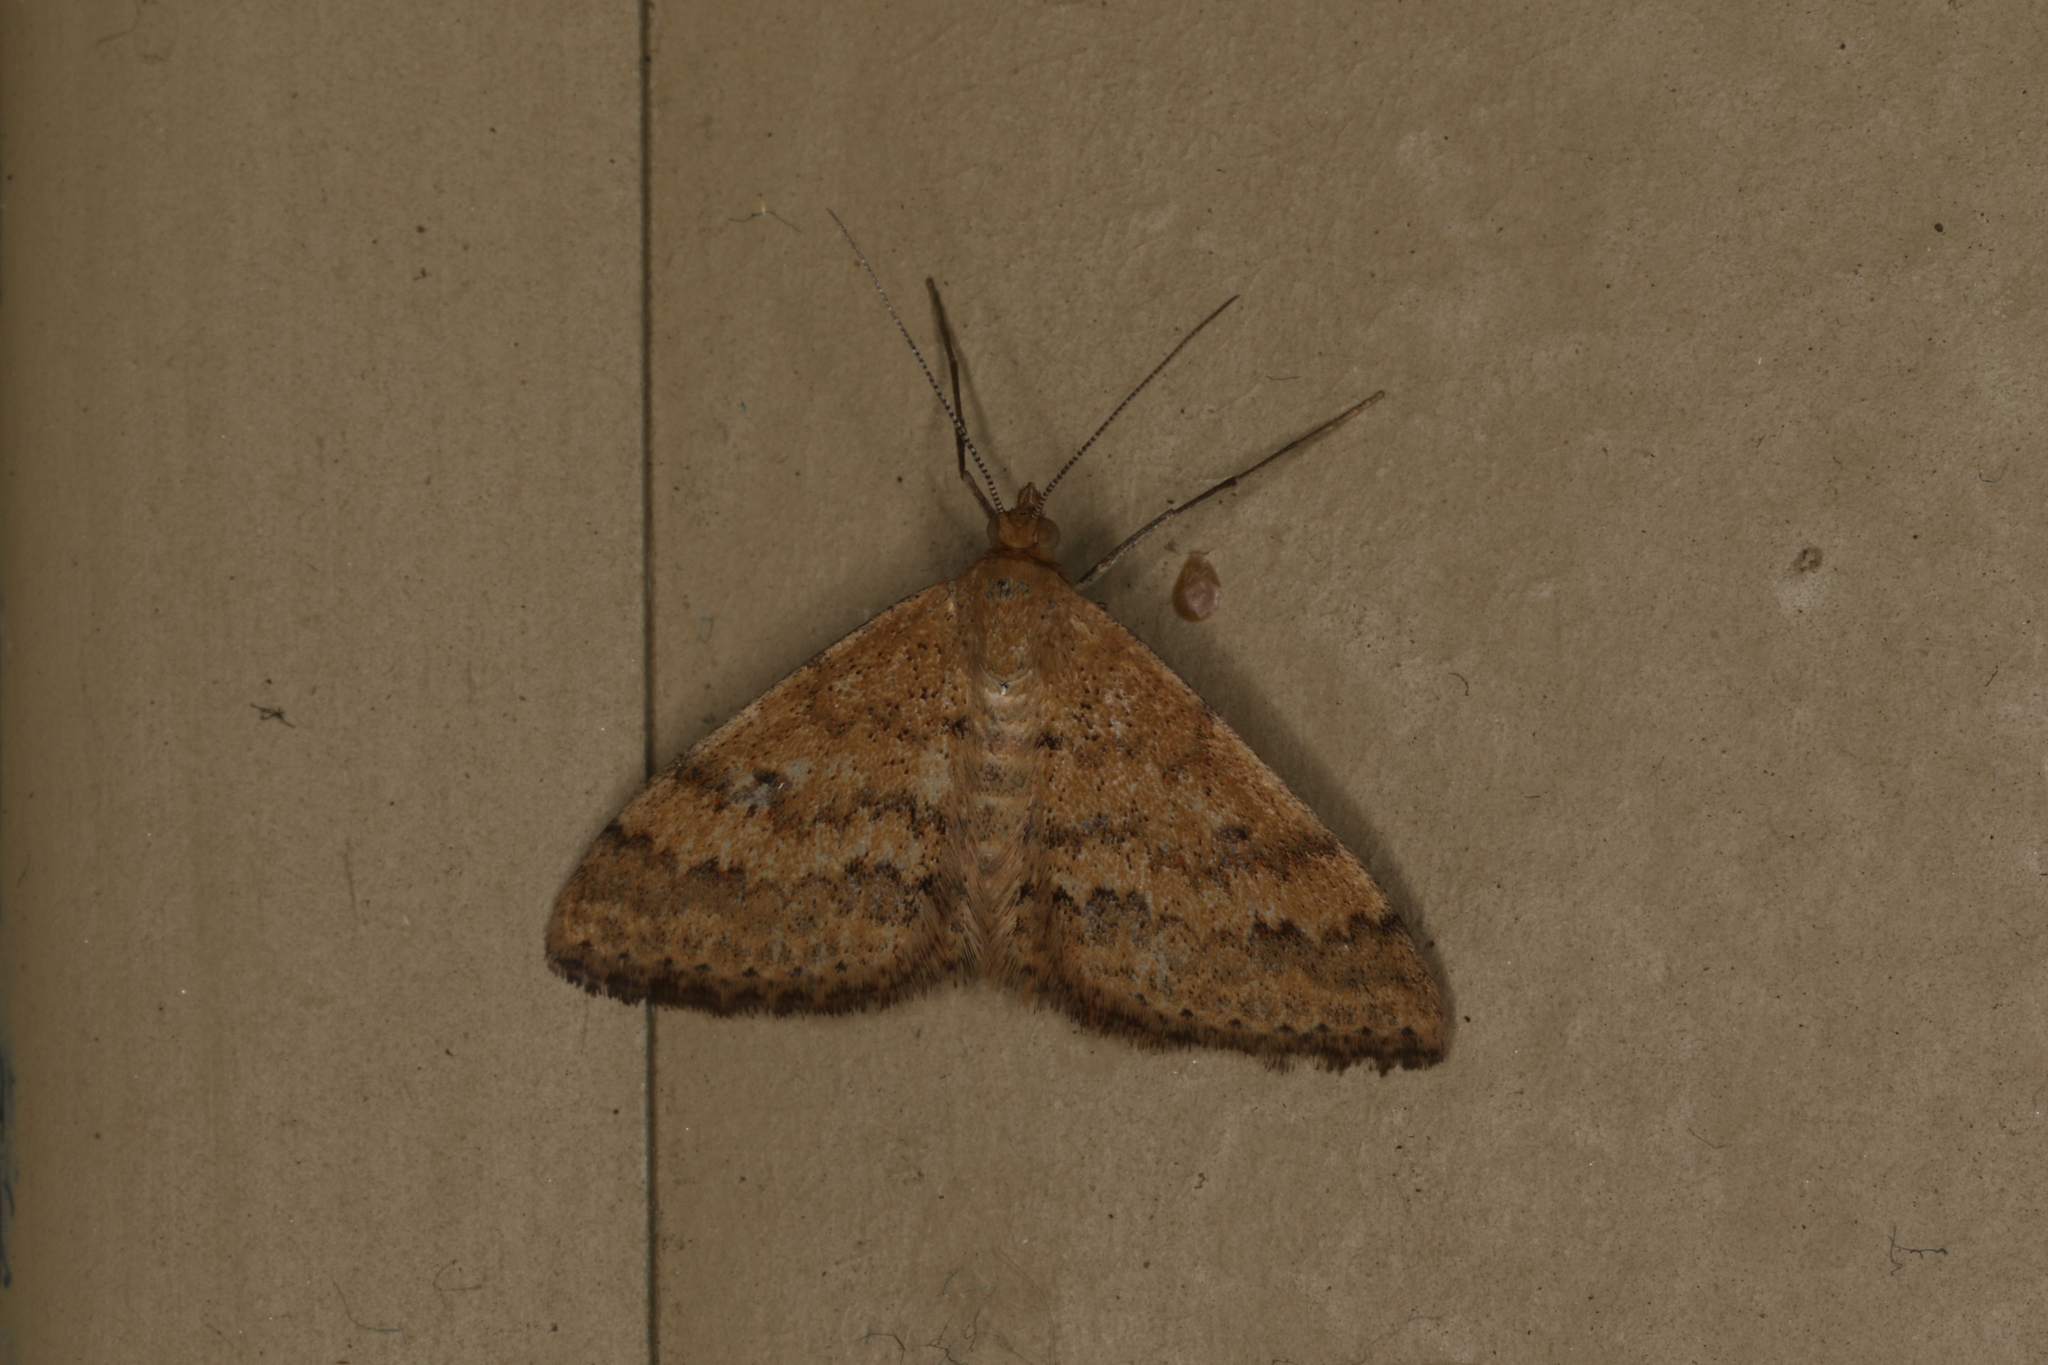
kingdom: Animalia
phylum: Arthropoda
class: Insecta
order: Lepidoptera
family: Geometridae
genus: Scopula
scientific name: Scopula rubraria
